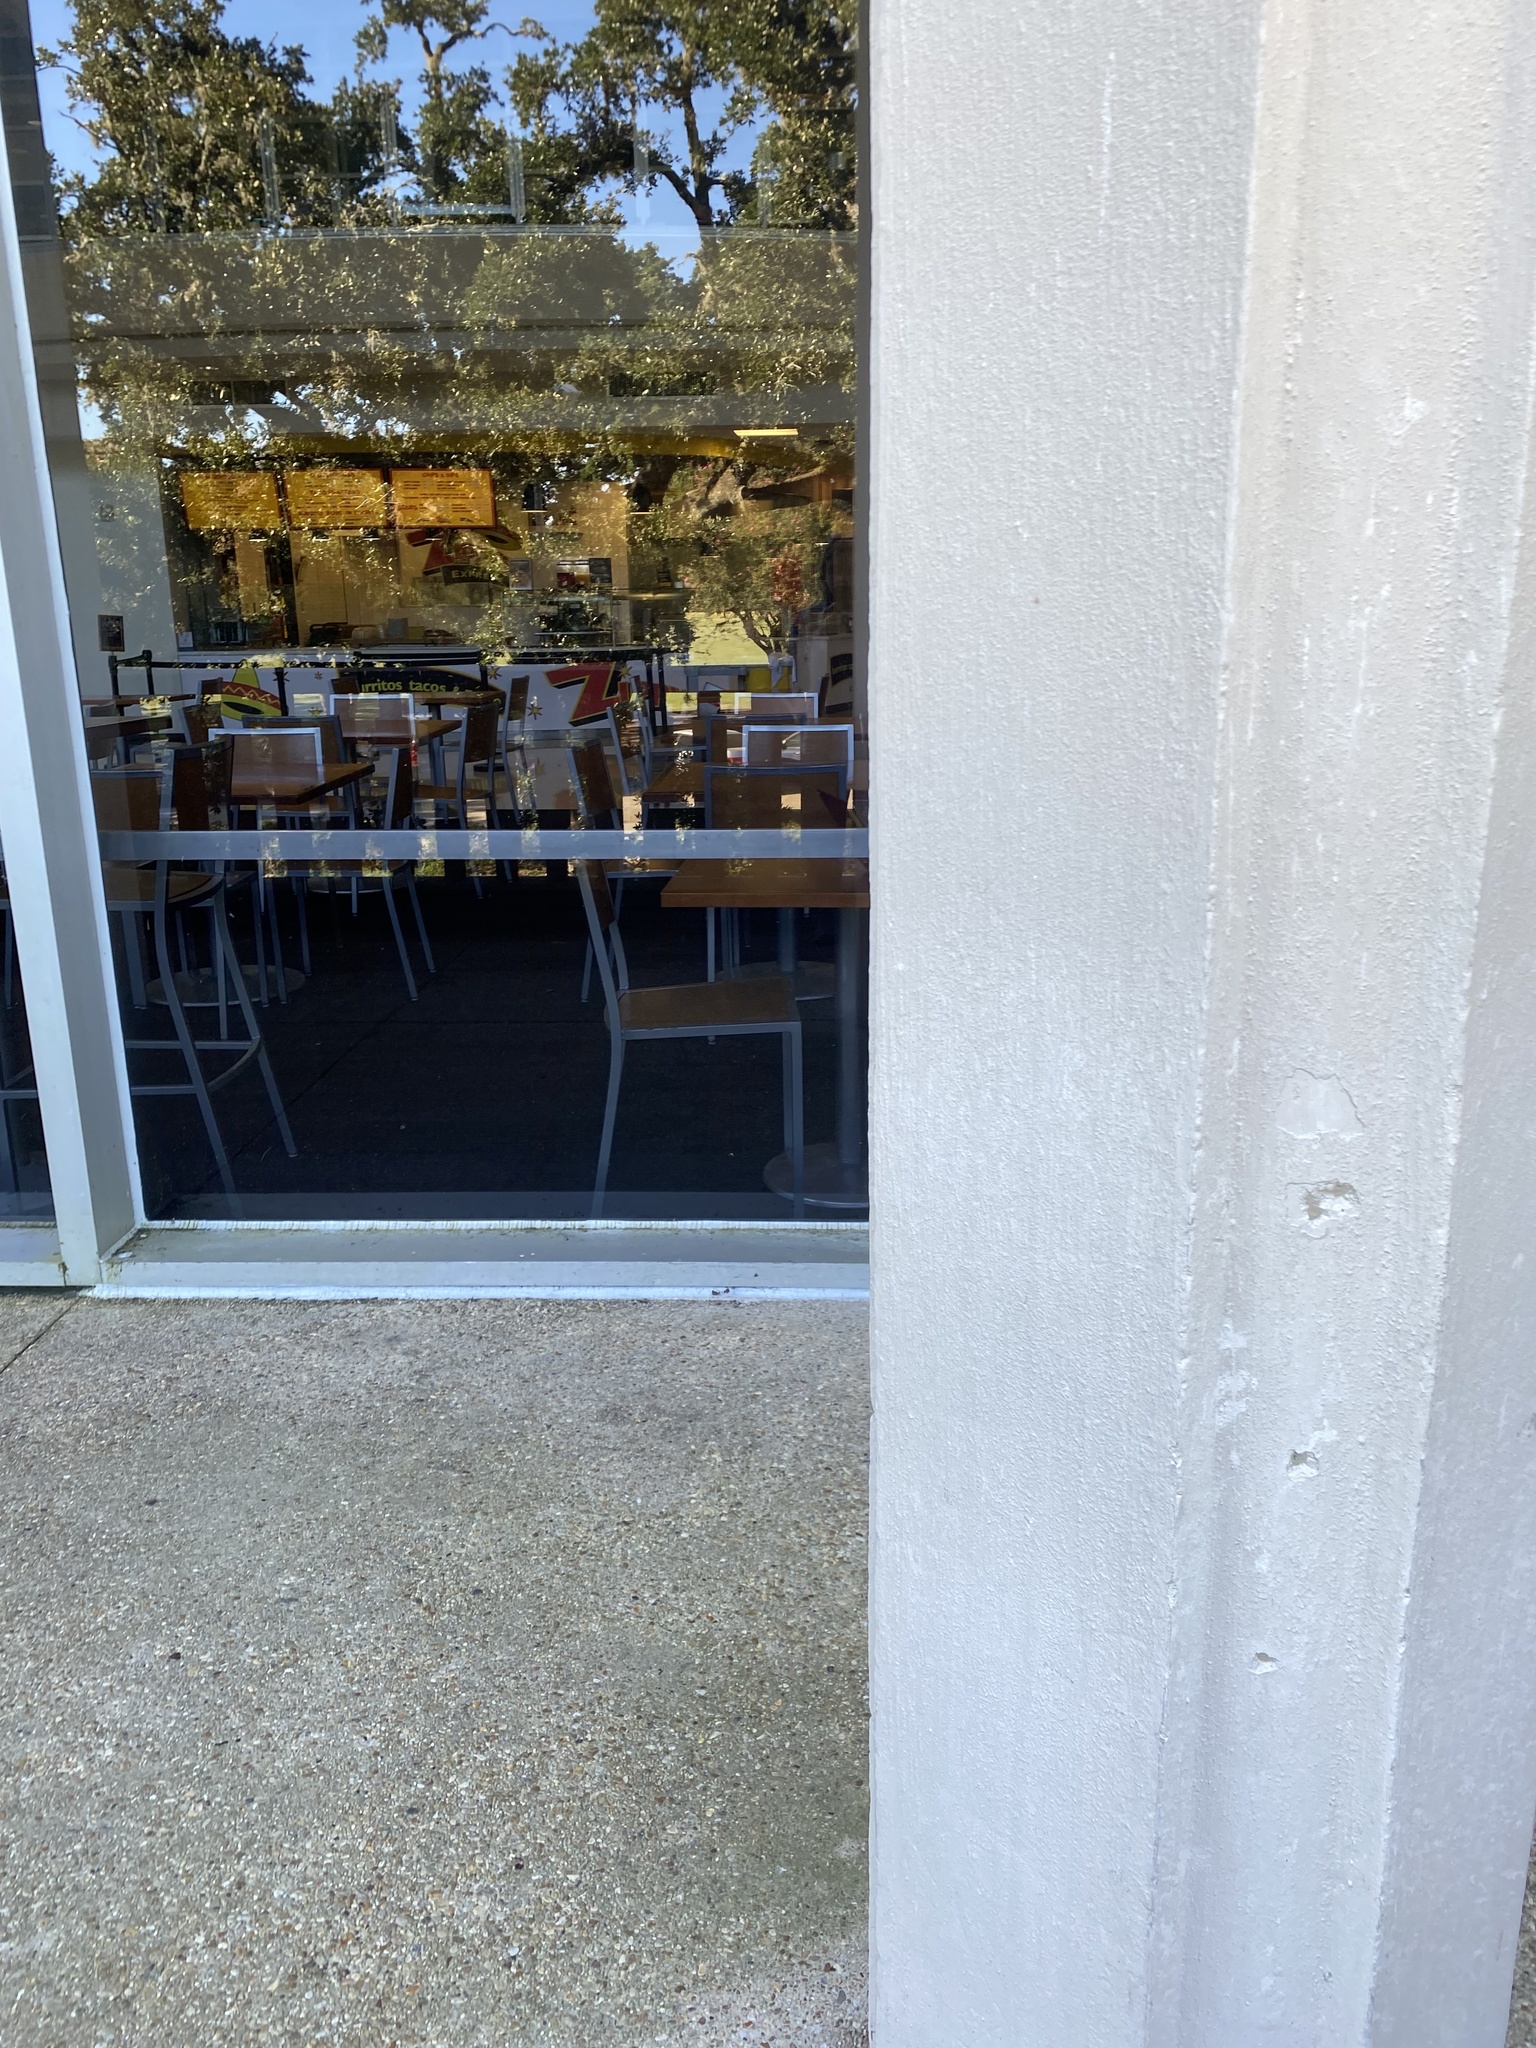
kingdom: Animalia
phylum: Chordata
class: Aves
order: Passeriformes
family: Parulidae
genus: Parkesia
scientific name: Parkesia noveboracensis
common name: Northern waterthrush
